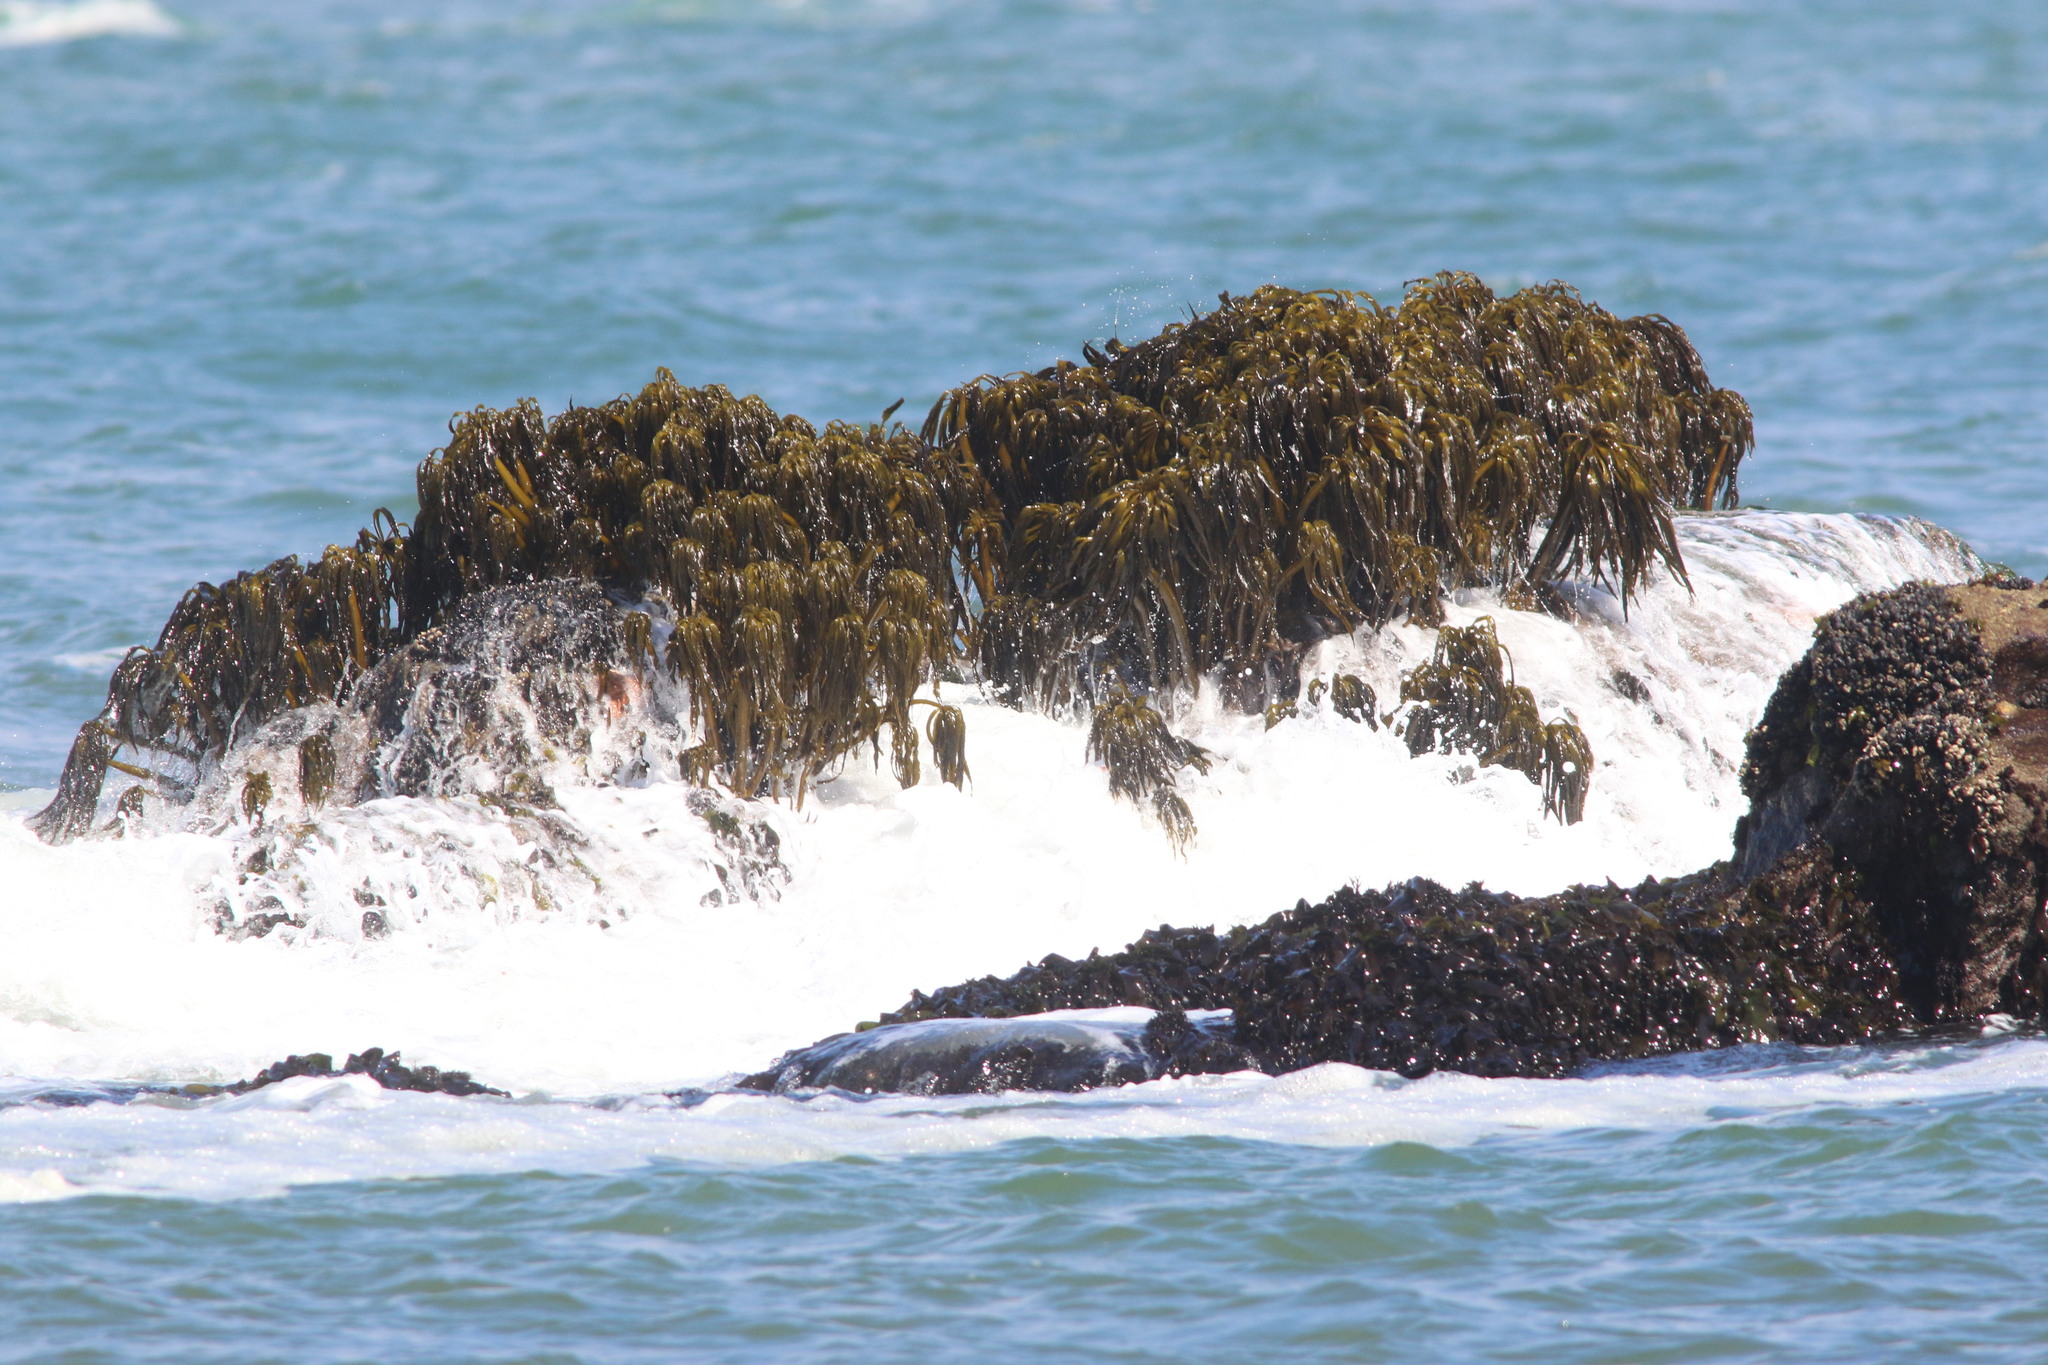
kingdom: Chromista
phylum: Ochrophyta
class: Phaeophyceae
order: Laminariales
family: Laminariaceae
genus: Postelsia
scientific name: Postelsia palmiformis
